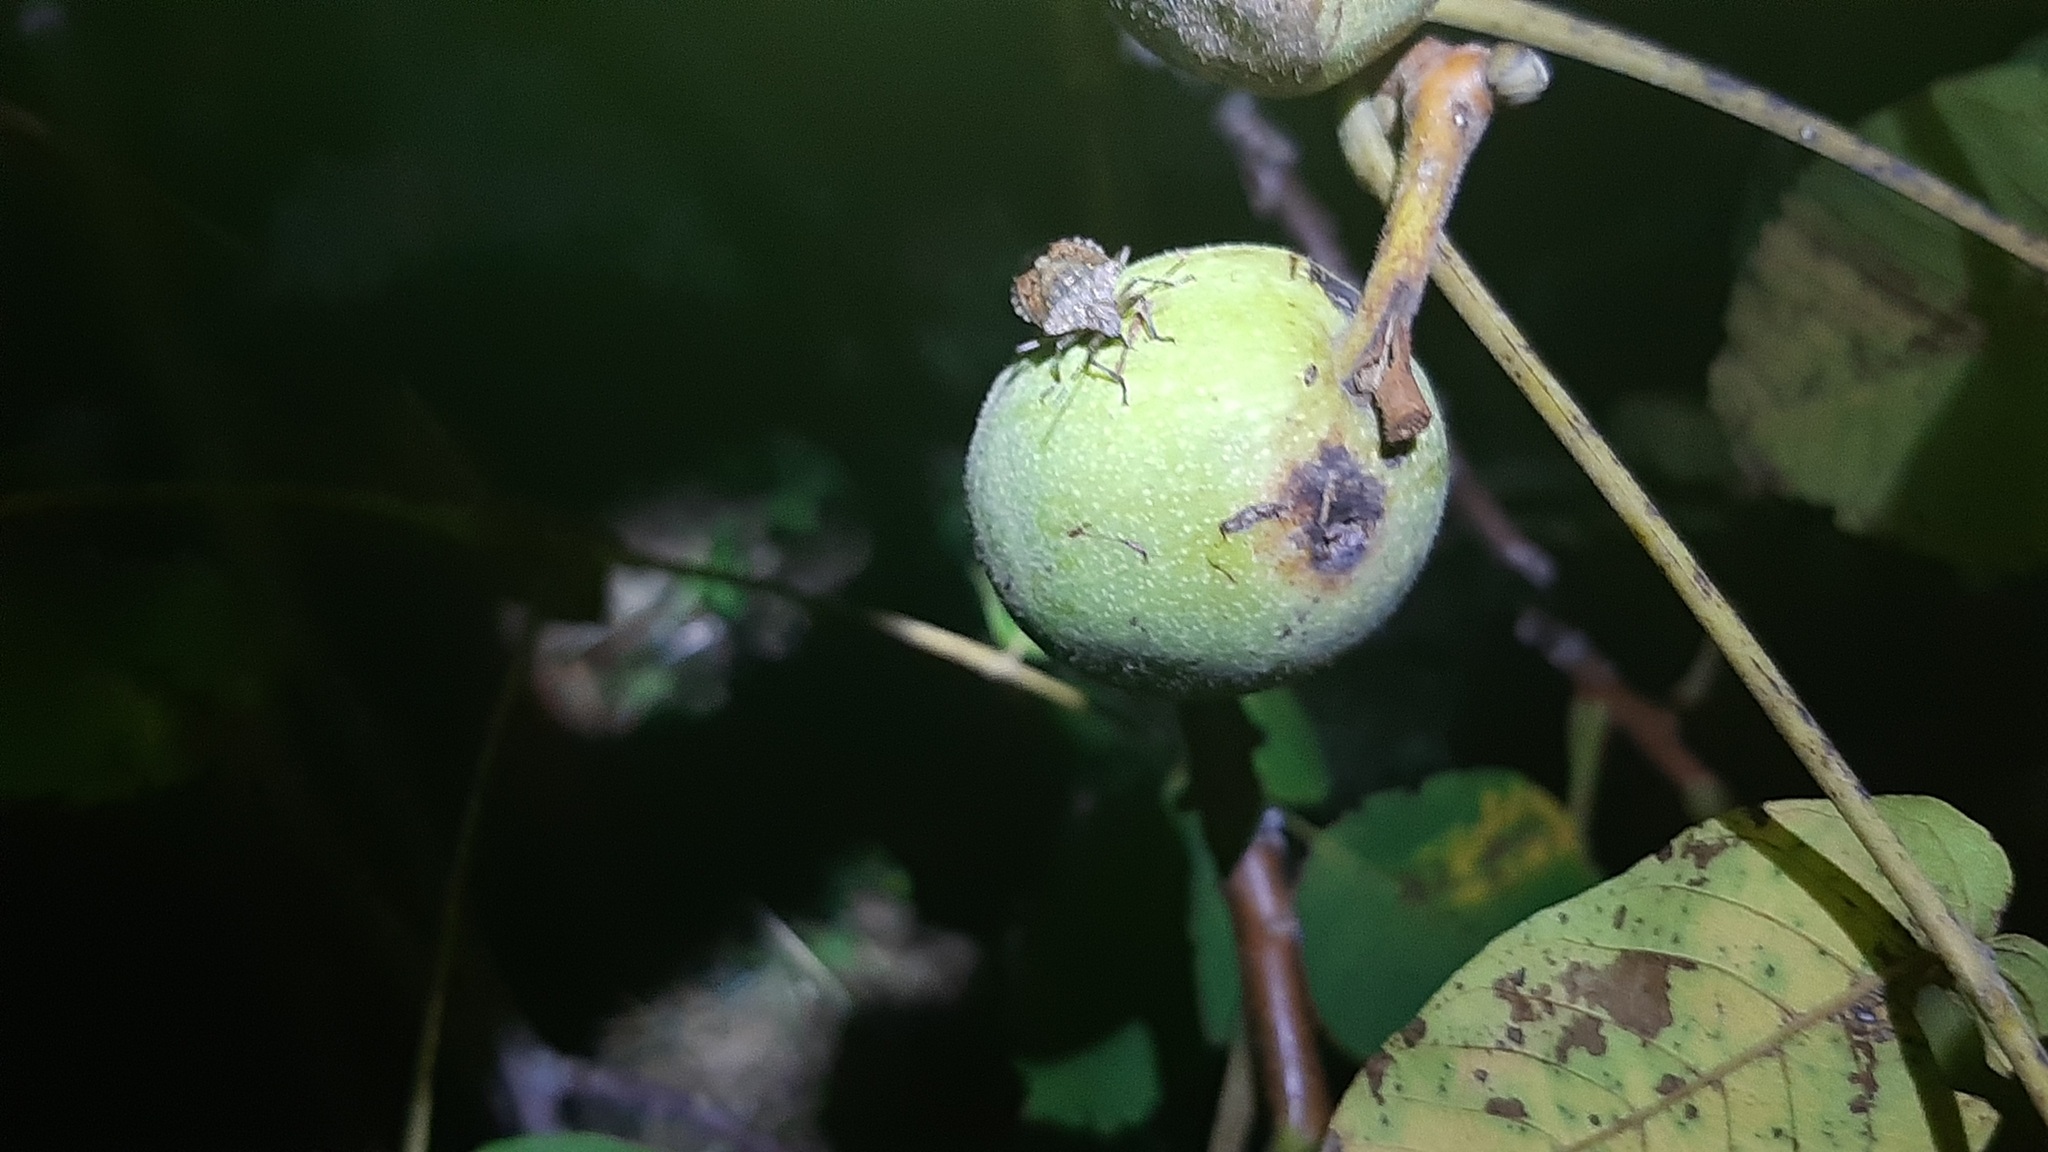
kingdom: Animalia
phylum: Arthropoda
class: Insecta
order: Hemiptera
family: Pentatomidae
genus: Halyomorpha
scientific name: Halyomorpha halys
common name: Brown marmorated stink bug
